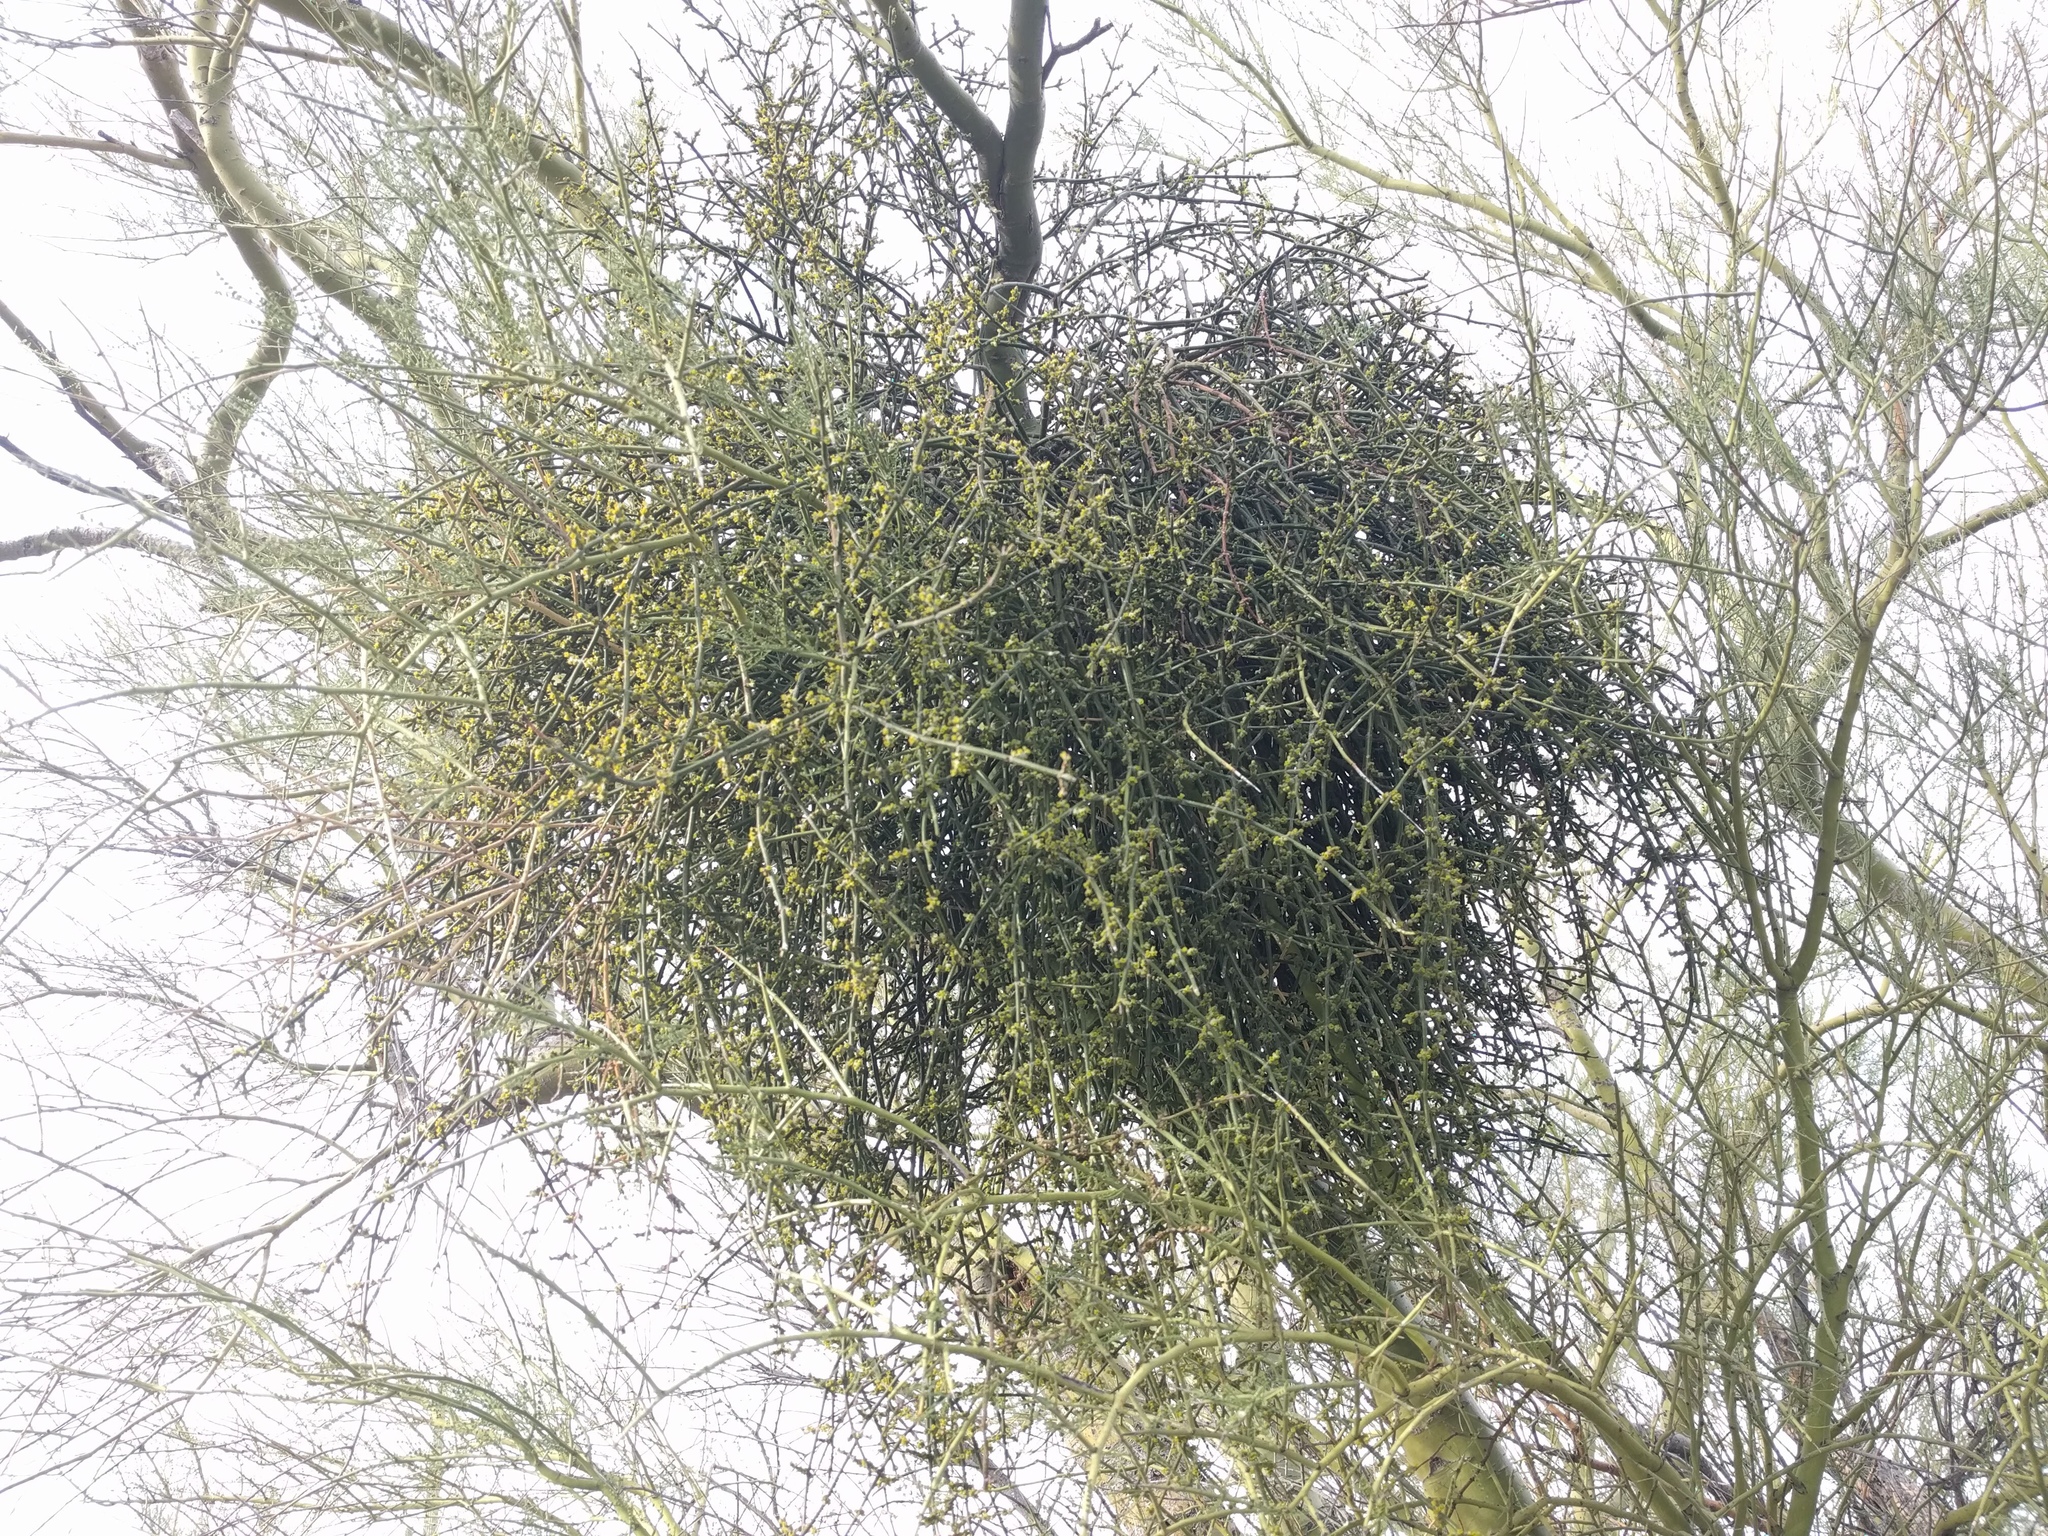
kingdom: Plantae
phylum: Tracheophyta
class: Magnoliopsida
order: Santalales
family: Viscaceae
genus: Phoradendron
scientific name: Phoradendron californicum
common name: Acacia mistletoe
